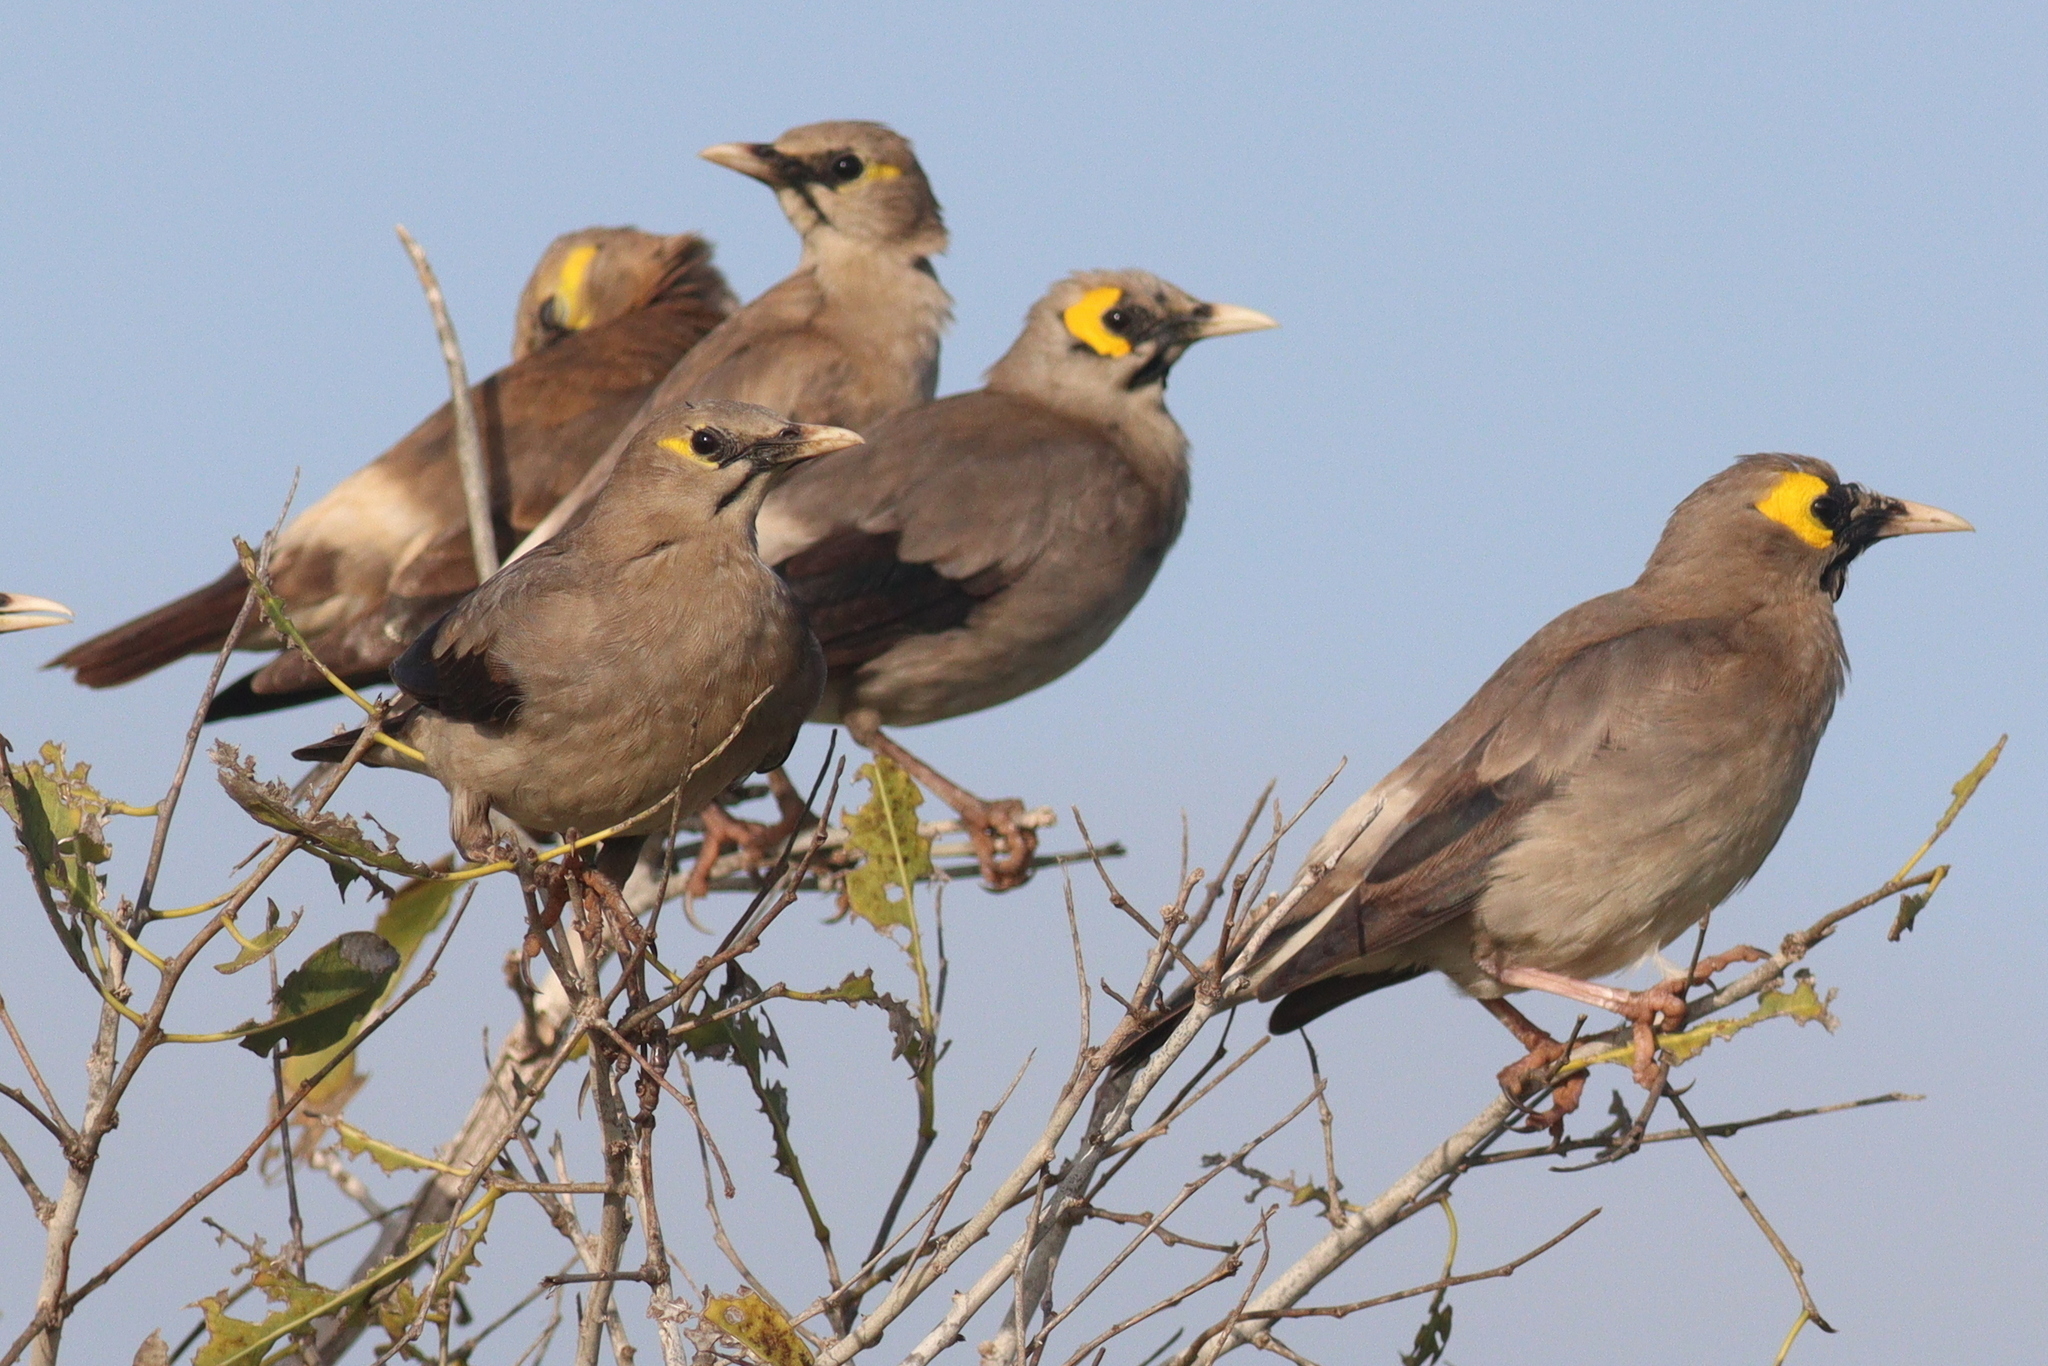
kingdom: Animalia
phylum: Chordata
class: Aves
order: Passeriformes
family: Sturnidae
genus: Creatophora
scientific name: Creatophora cinerea
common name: Wattled starling
